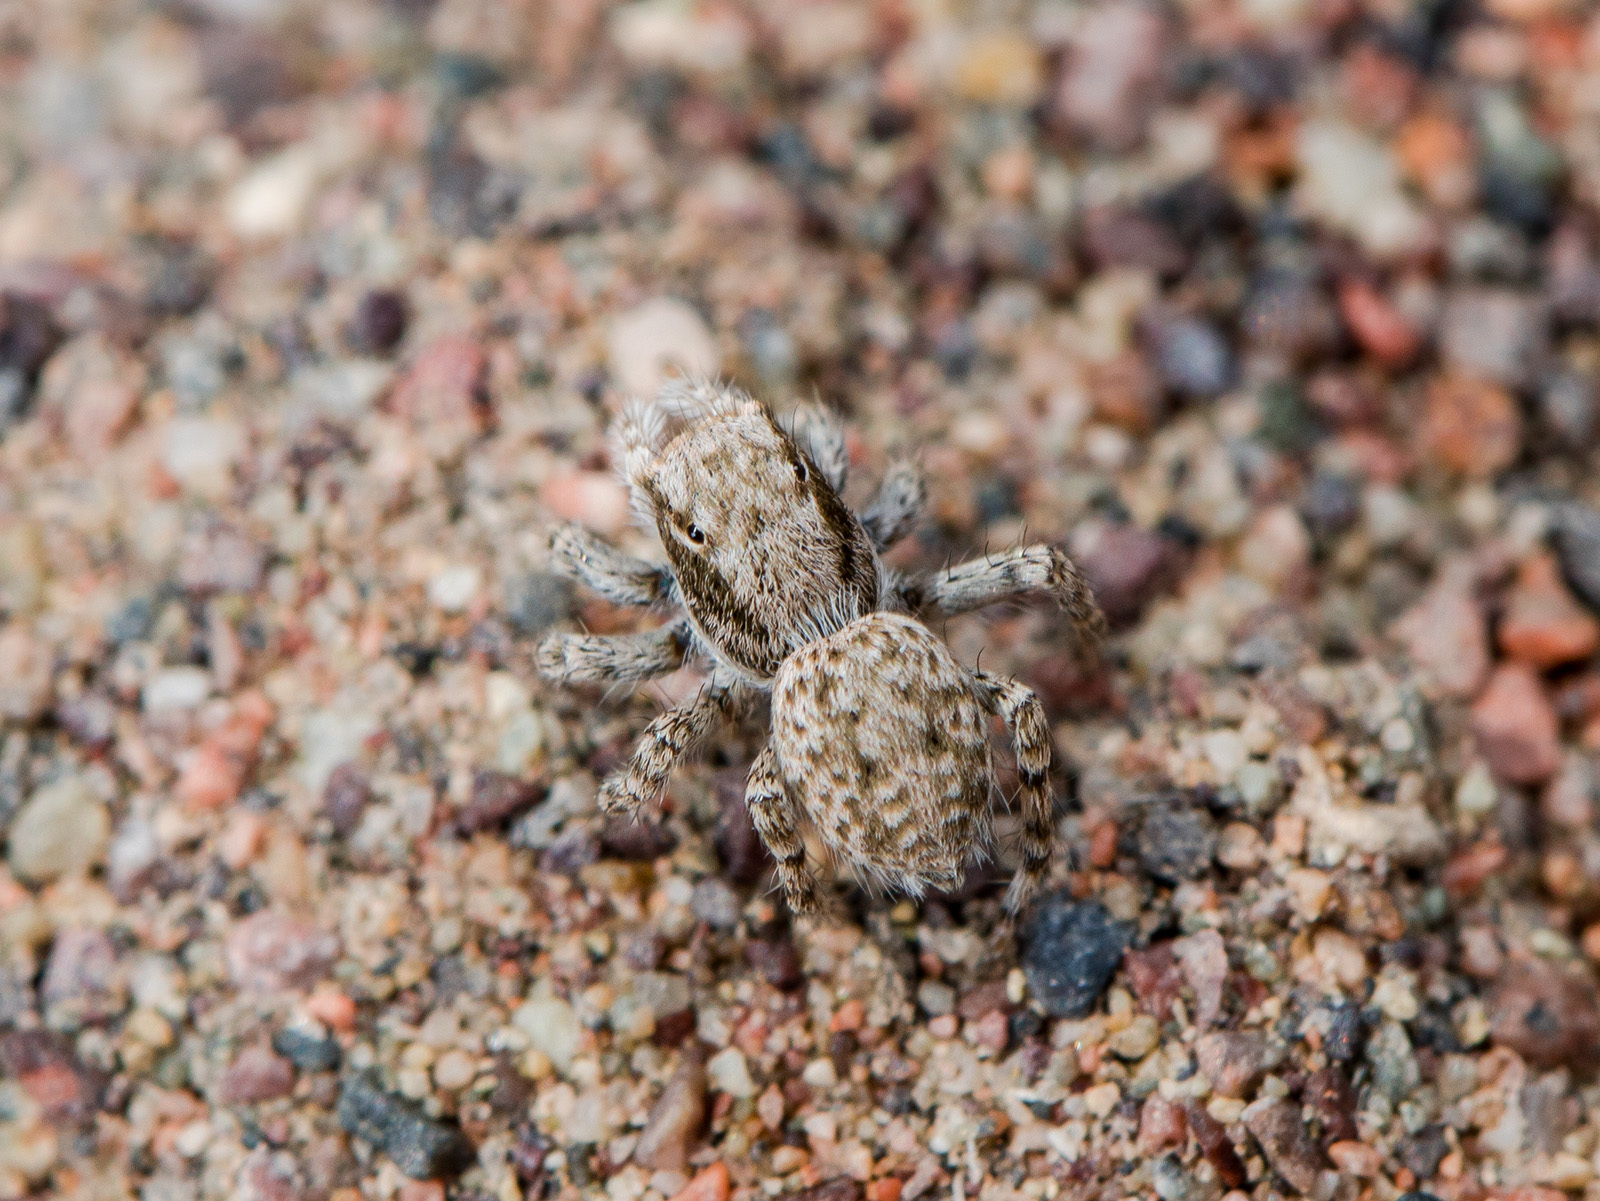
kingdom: Animalia
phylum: Arthropoda
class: Arachnida
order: Araneae
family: Salticidae
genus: Aelurillus
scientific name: Aelurillus andreevae
